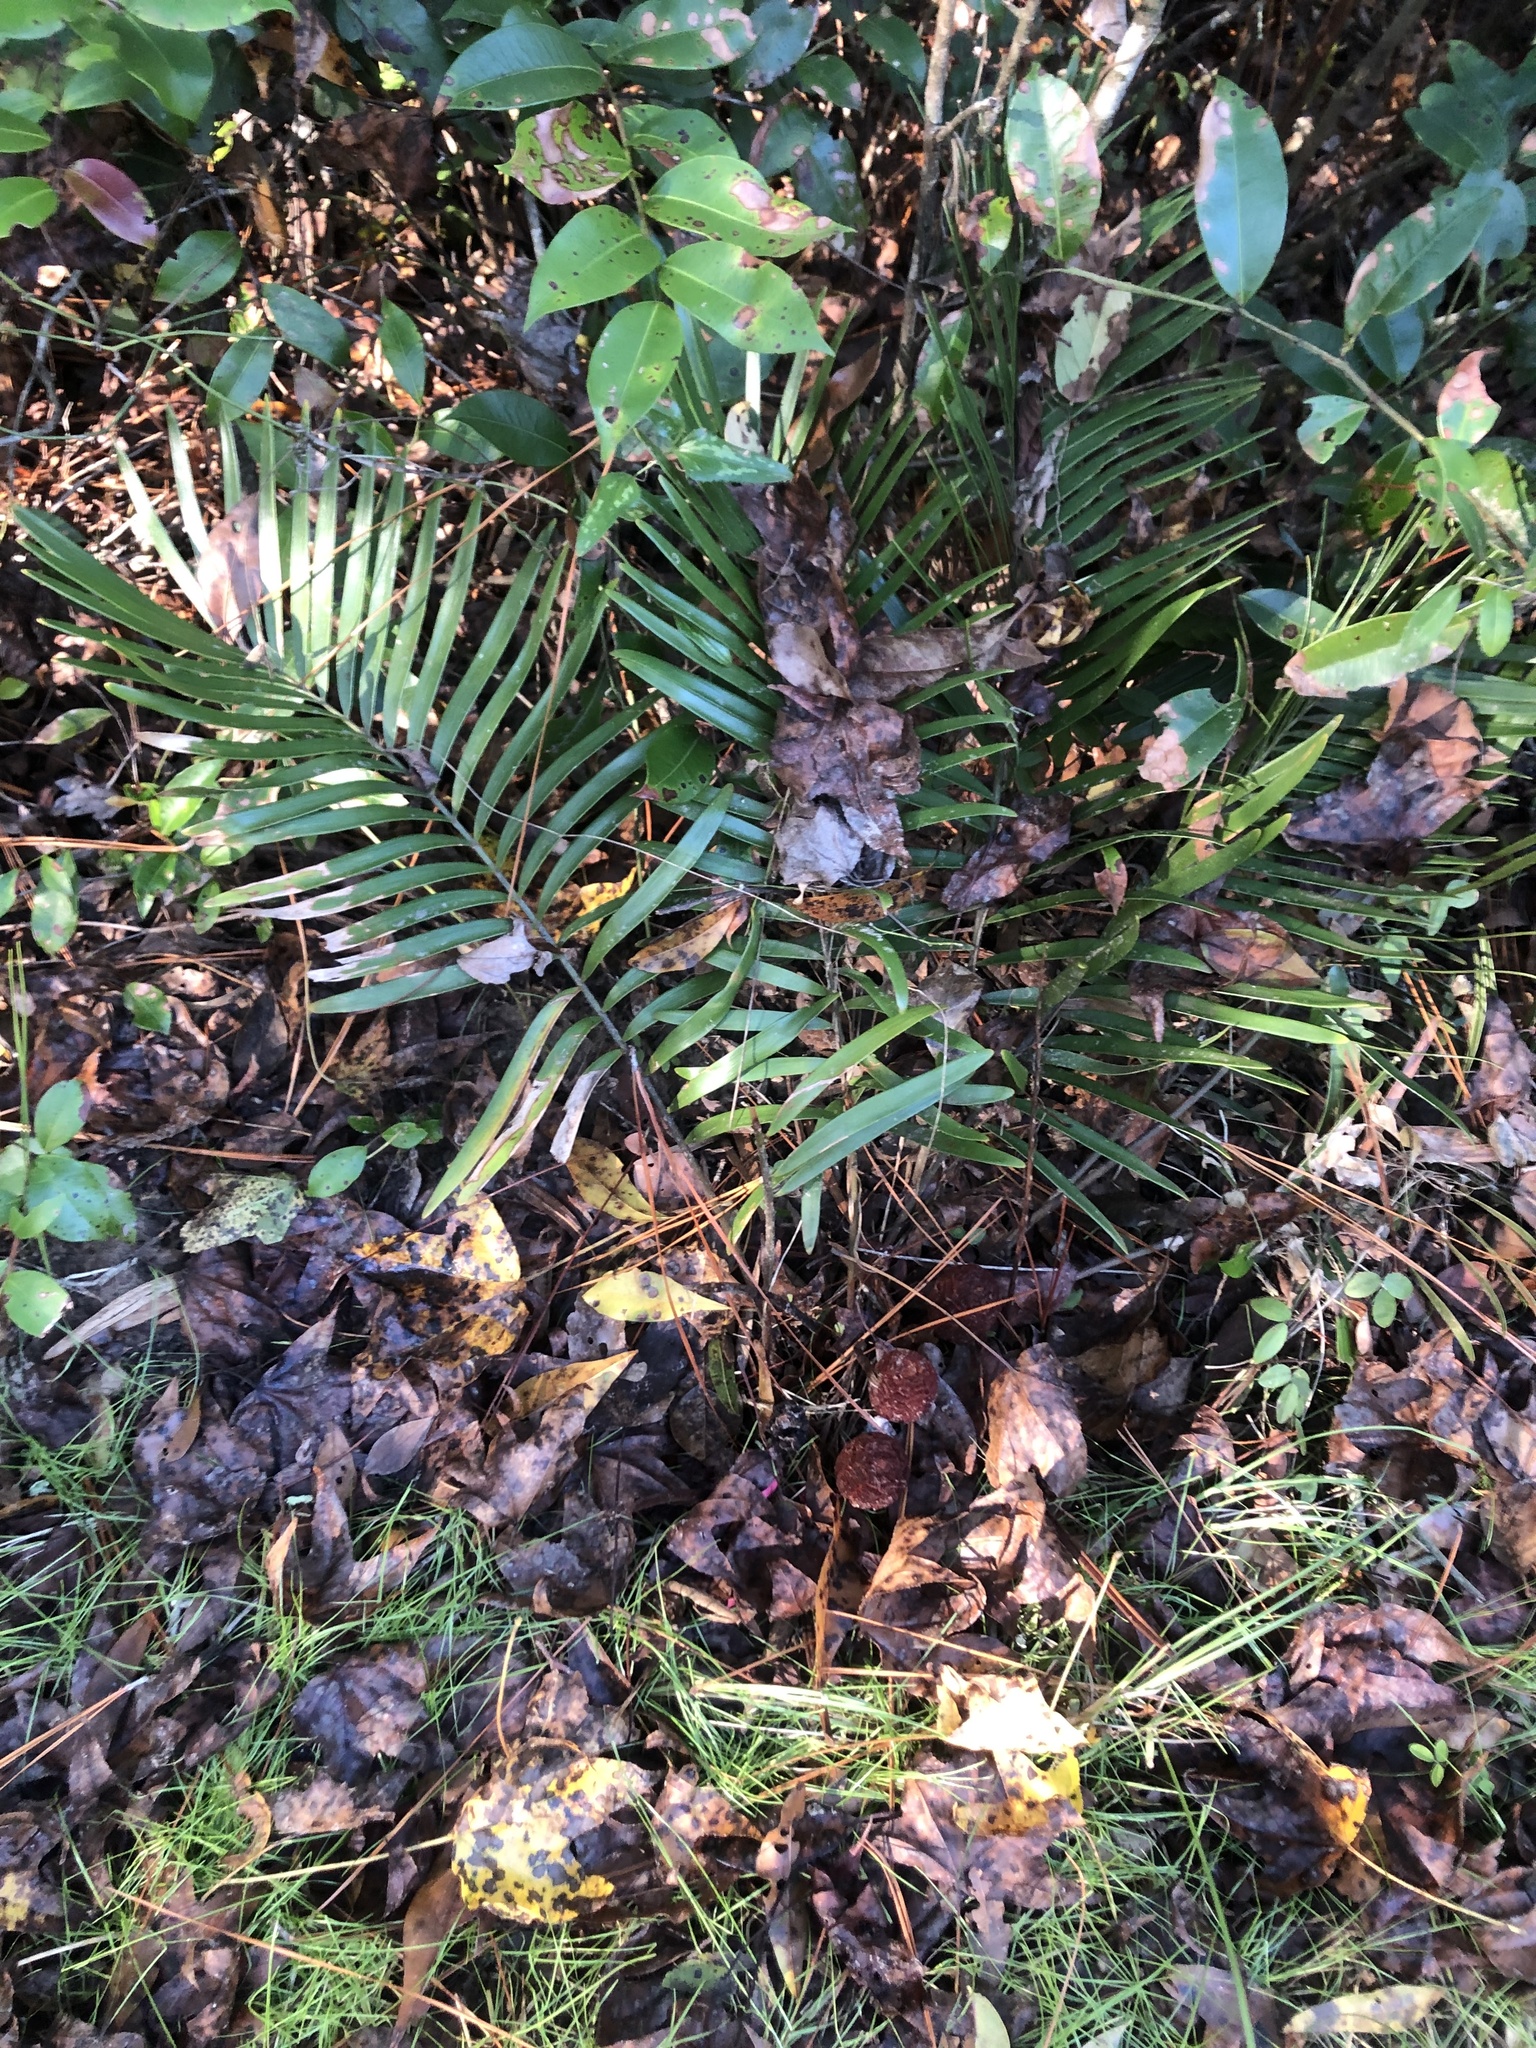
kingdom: Plantae
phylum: Tracheophyta
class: Cycadopsida
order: Cycadales
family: Zamiaceae
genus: Zamia
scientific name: Zamia integrifolia
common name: Florida arrowroot
